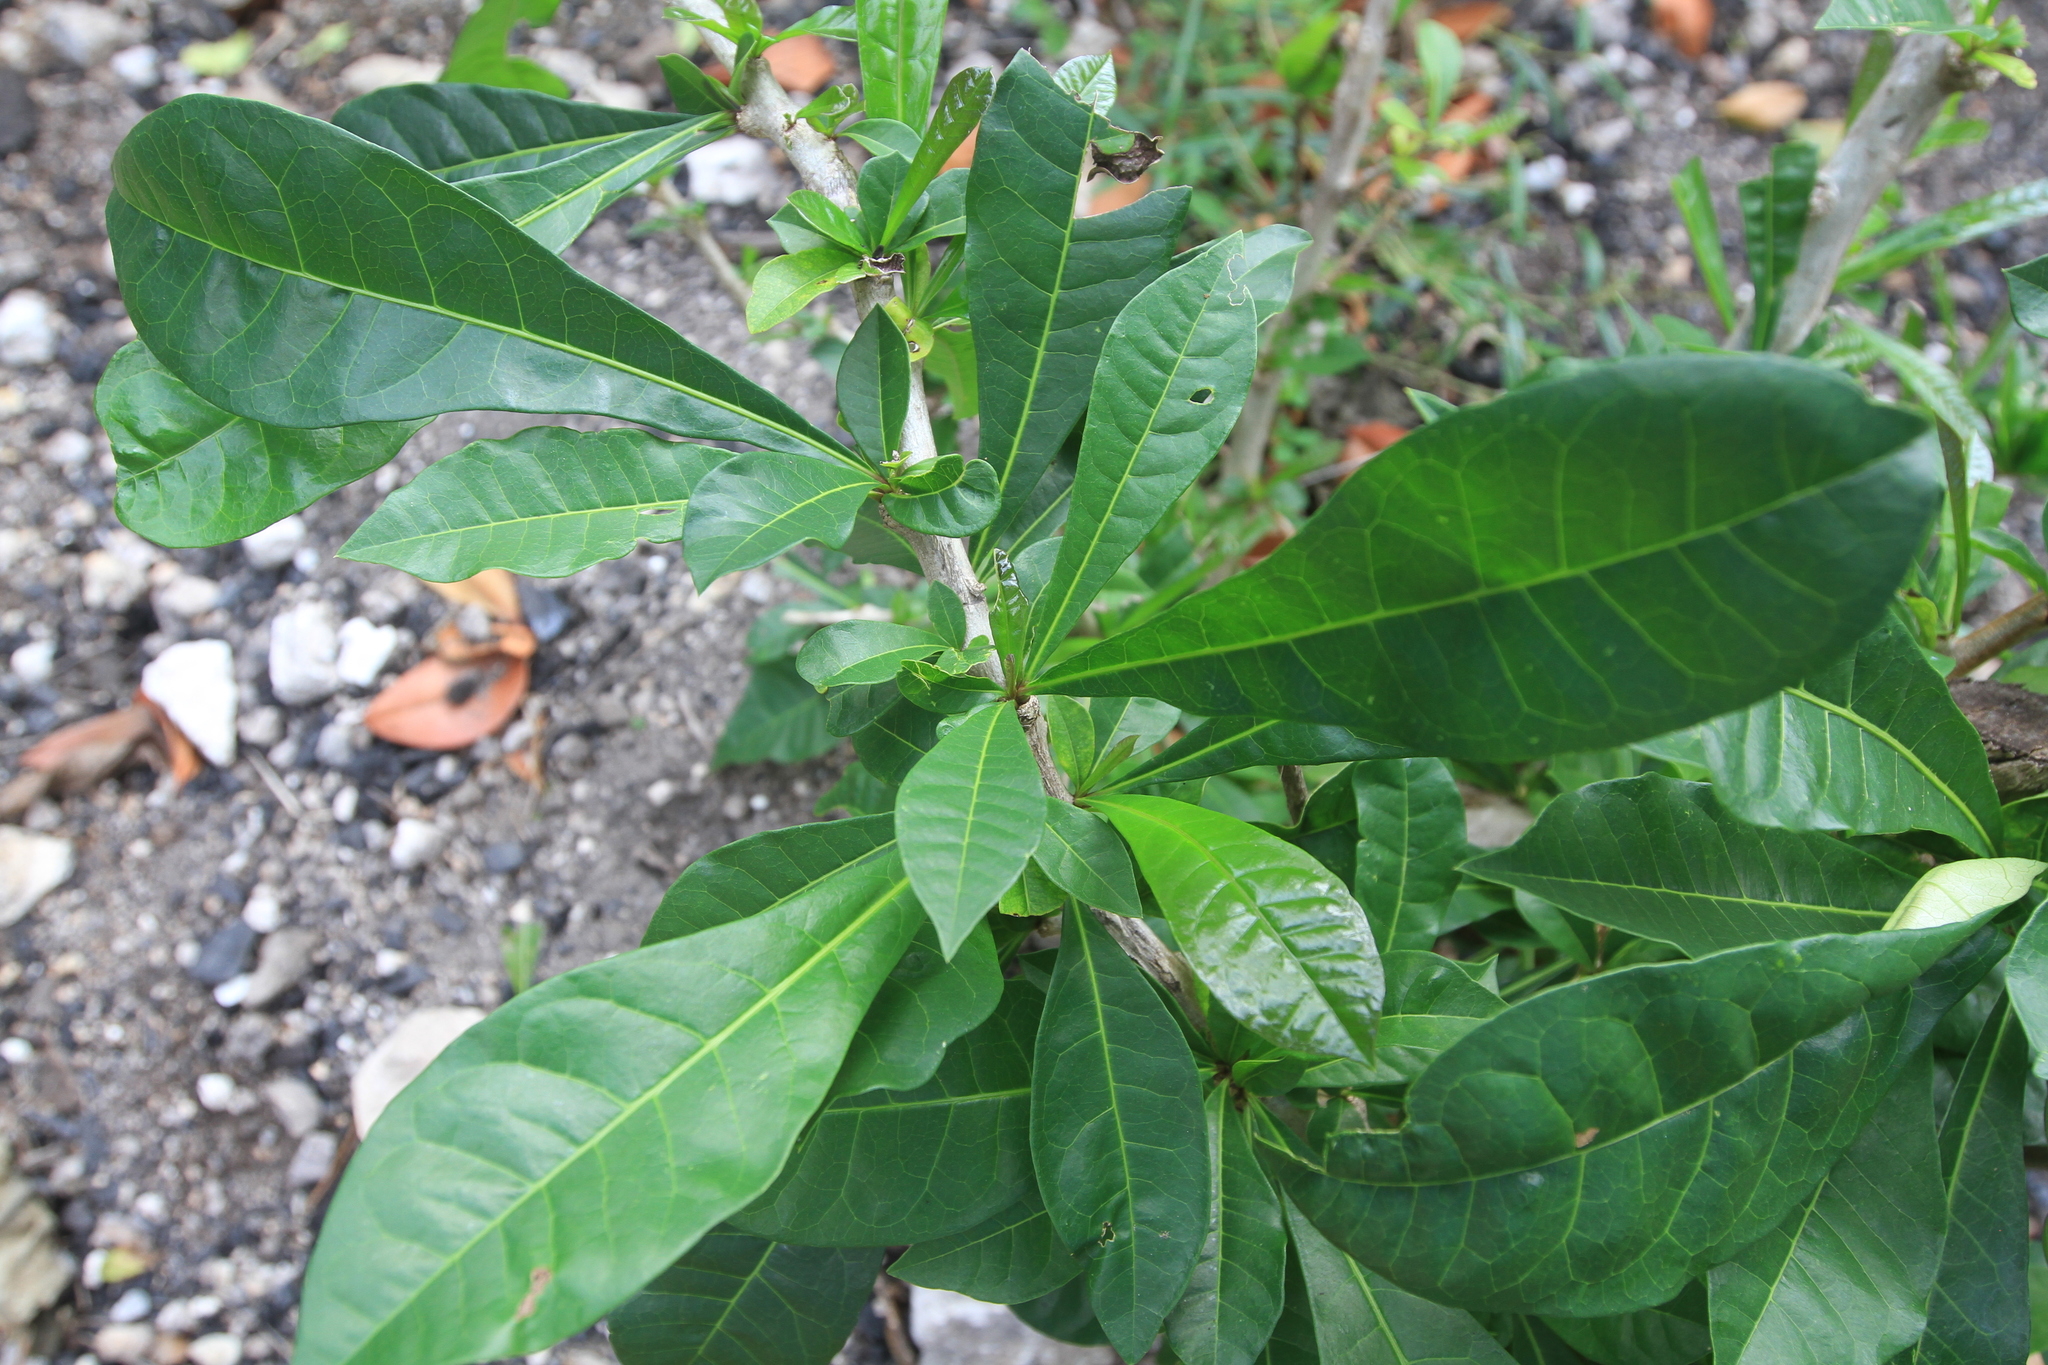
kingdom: Plantae
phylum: Tracheophyta
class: Magnoliopsida
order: Lamiales
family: Bignoniaceae
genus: Crescentia
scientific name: Crescentia cujete
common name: Calabash
